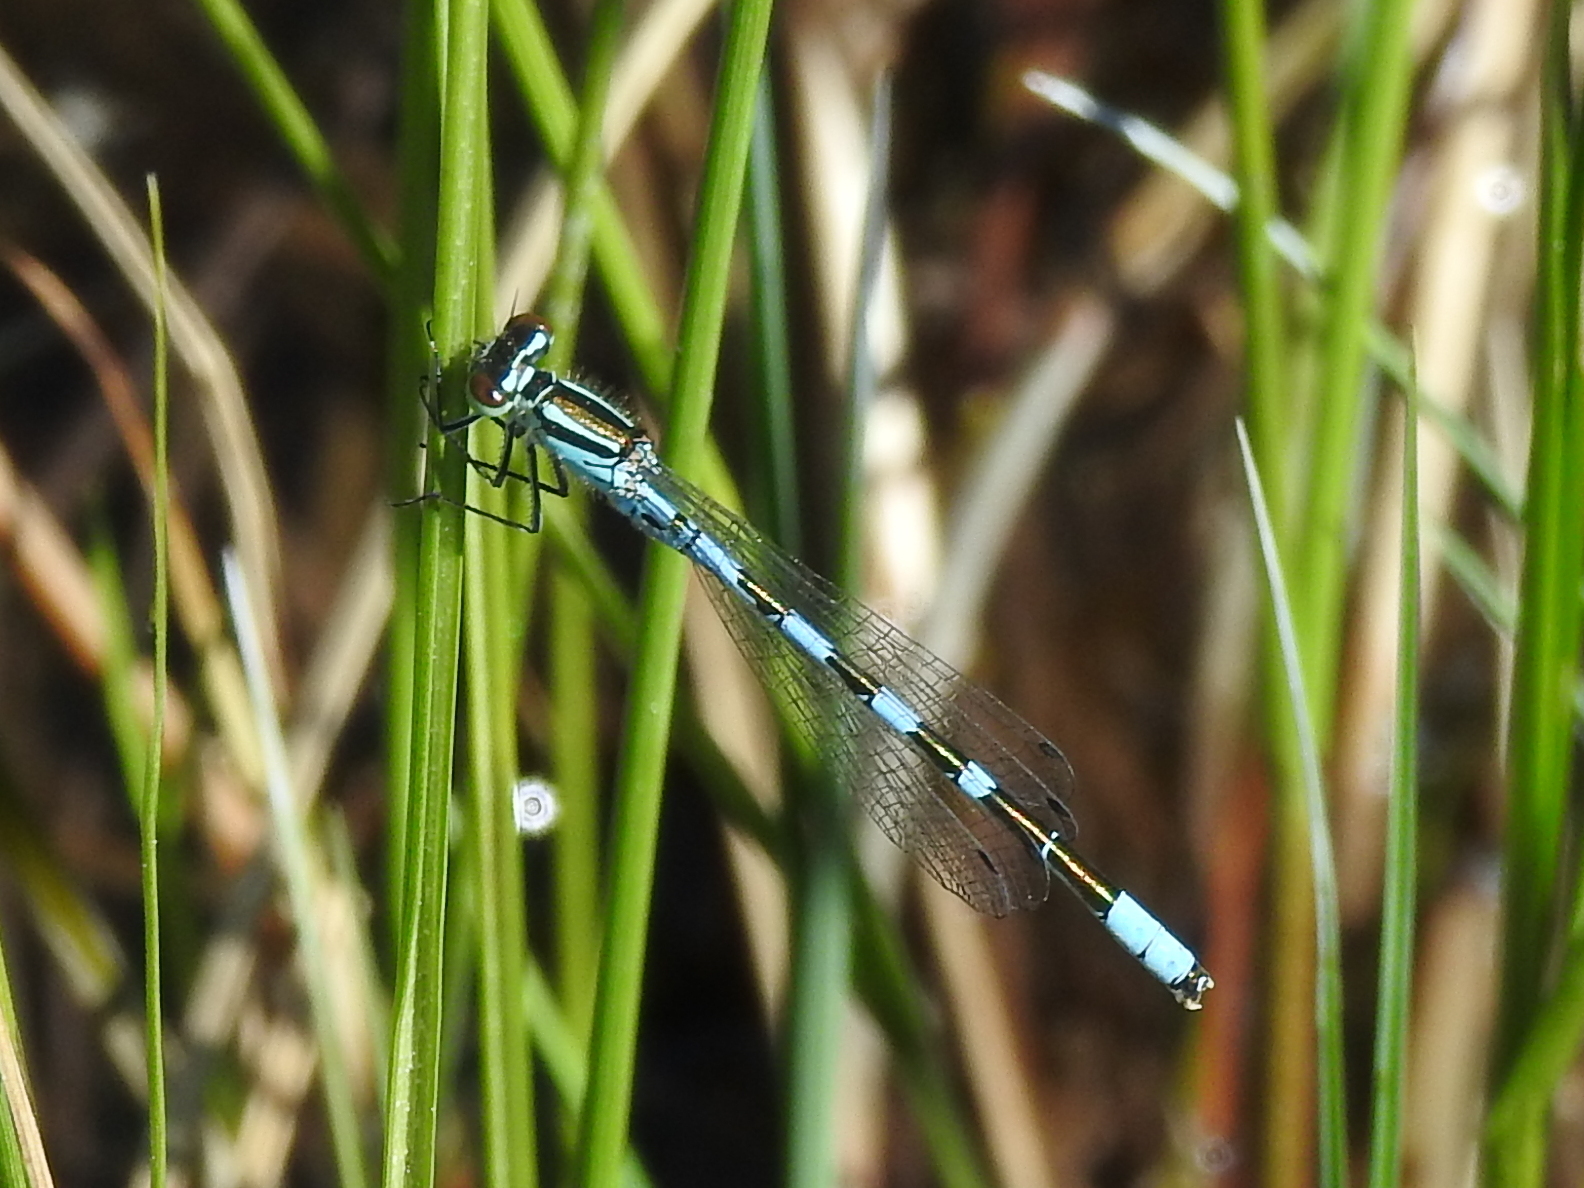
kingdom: Animalia
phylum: Arthropoda
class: Insecta
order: Odonata
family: Coenagrionidae
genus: Coenagrion
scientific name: Coenagrion hastulatum
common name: Spearhead bluet
